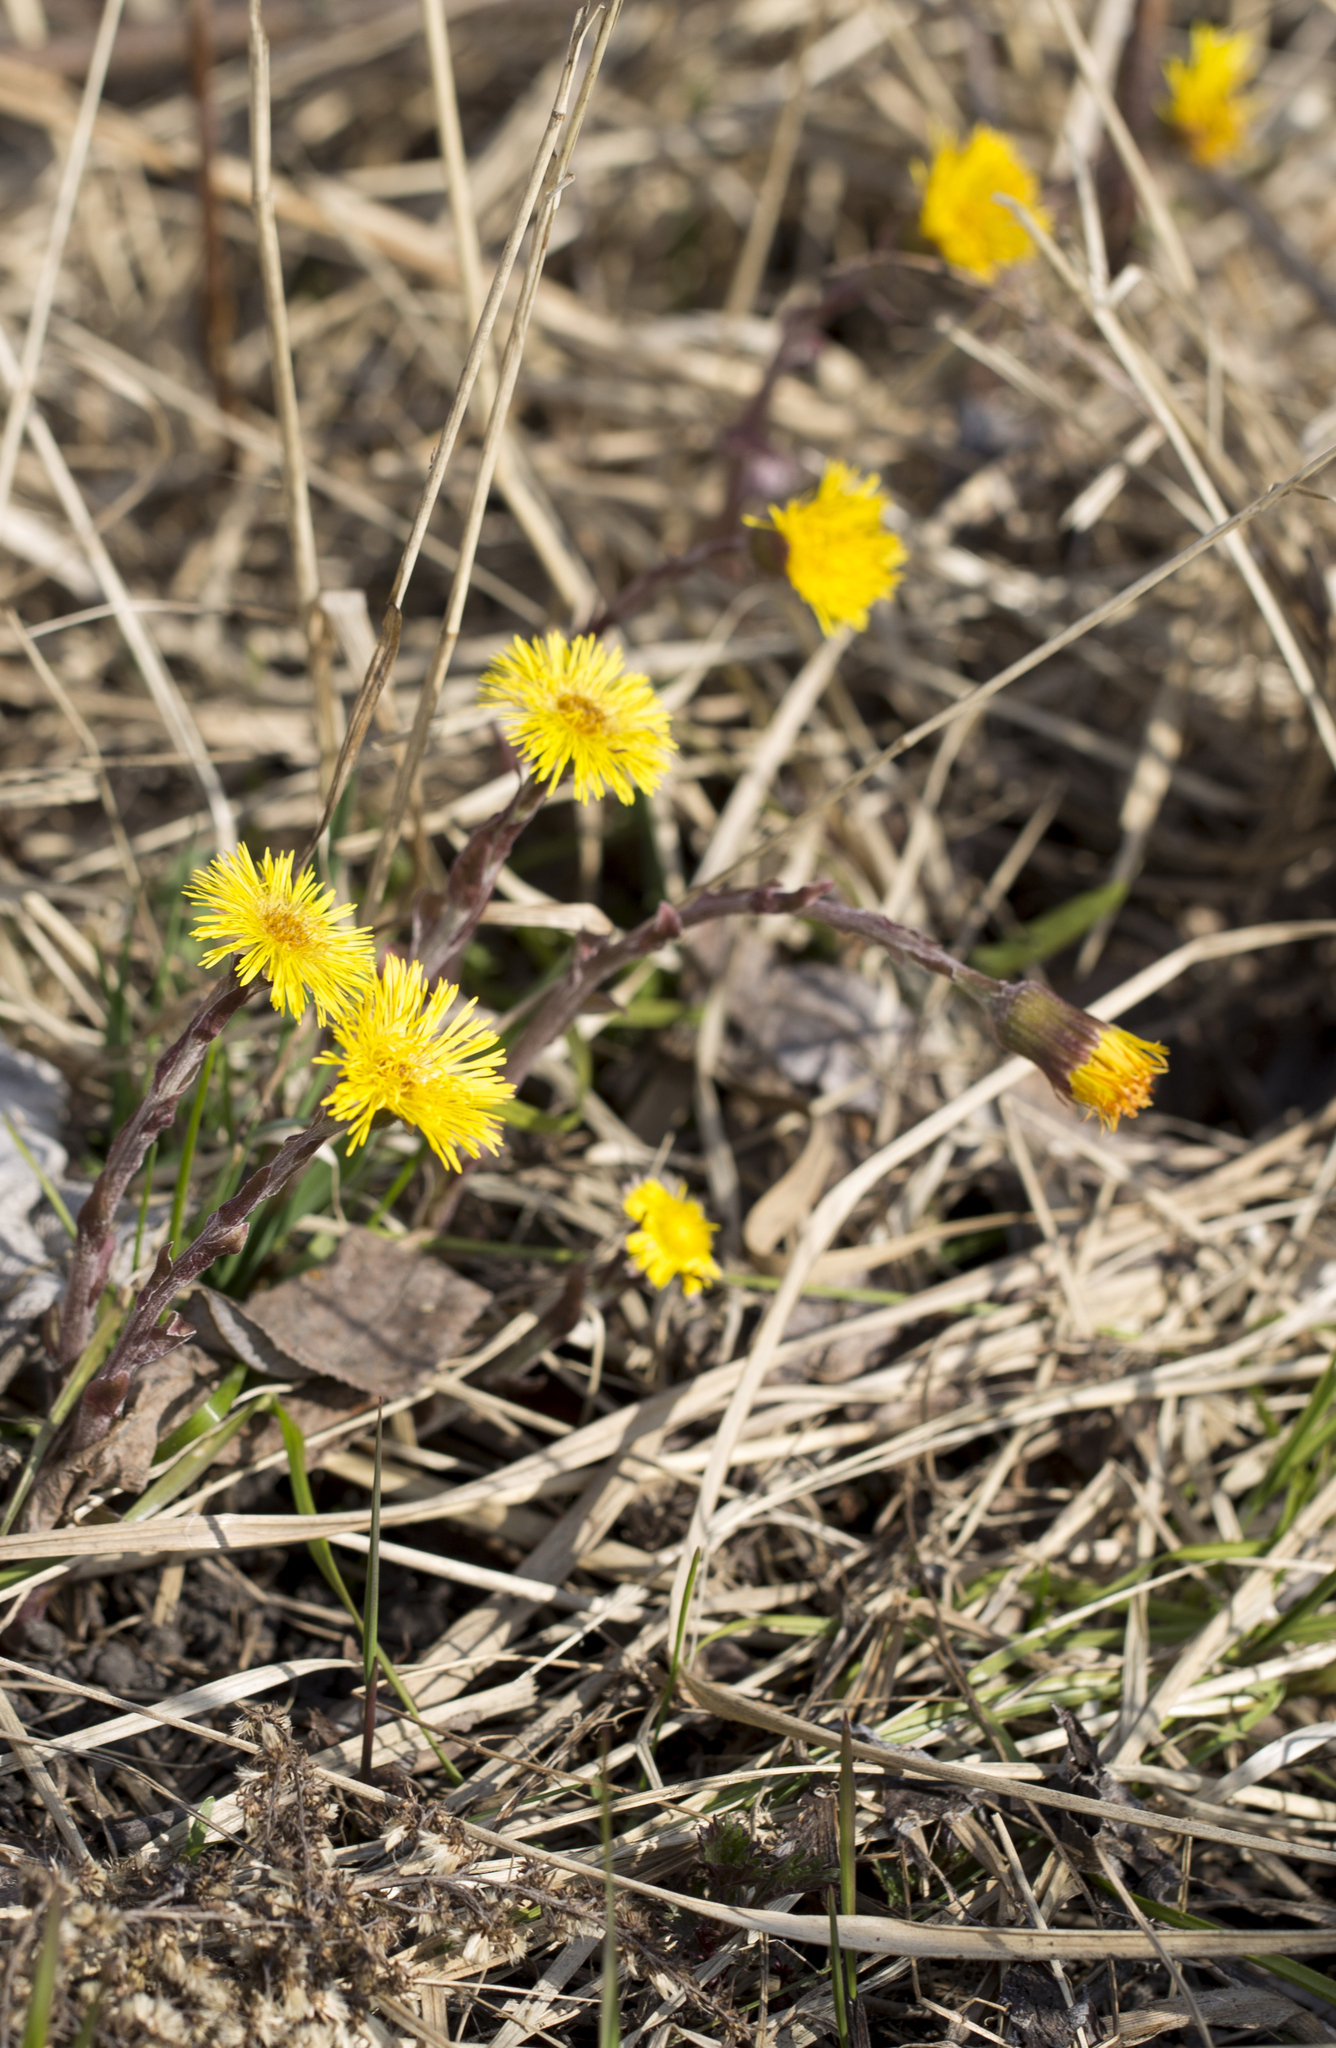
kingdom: Plantae
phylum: Tracheophyta
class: Magnoliopsida
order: Asterales
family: Asteraceae
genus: Tussilago
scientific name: Tussilago farfara
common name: Coltsfoot
